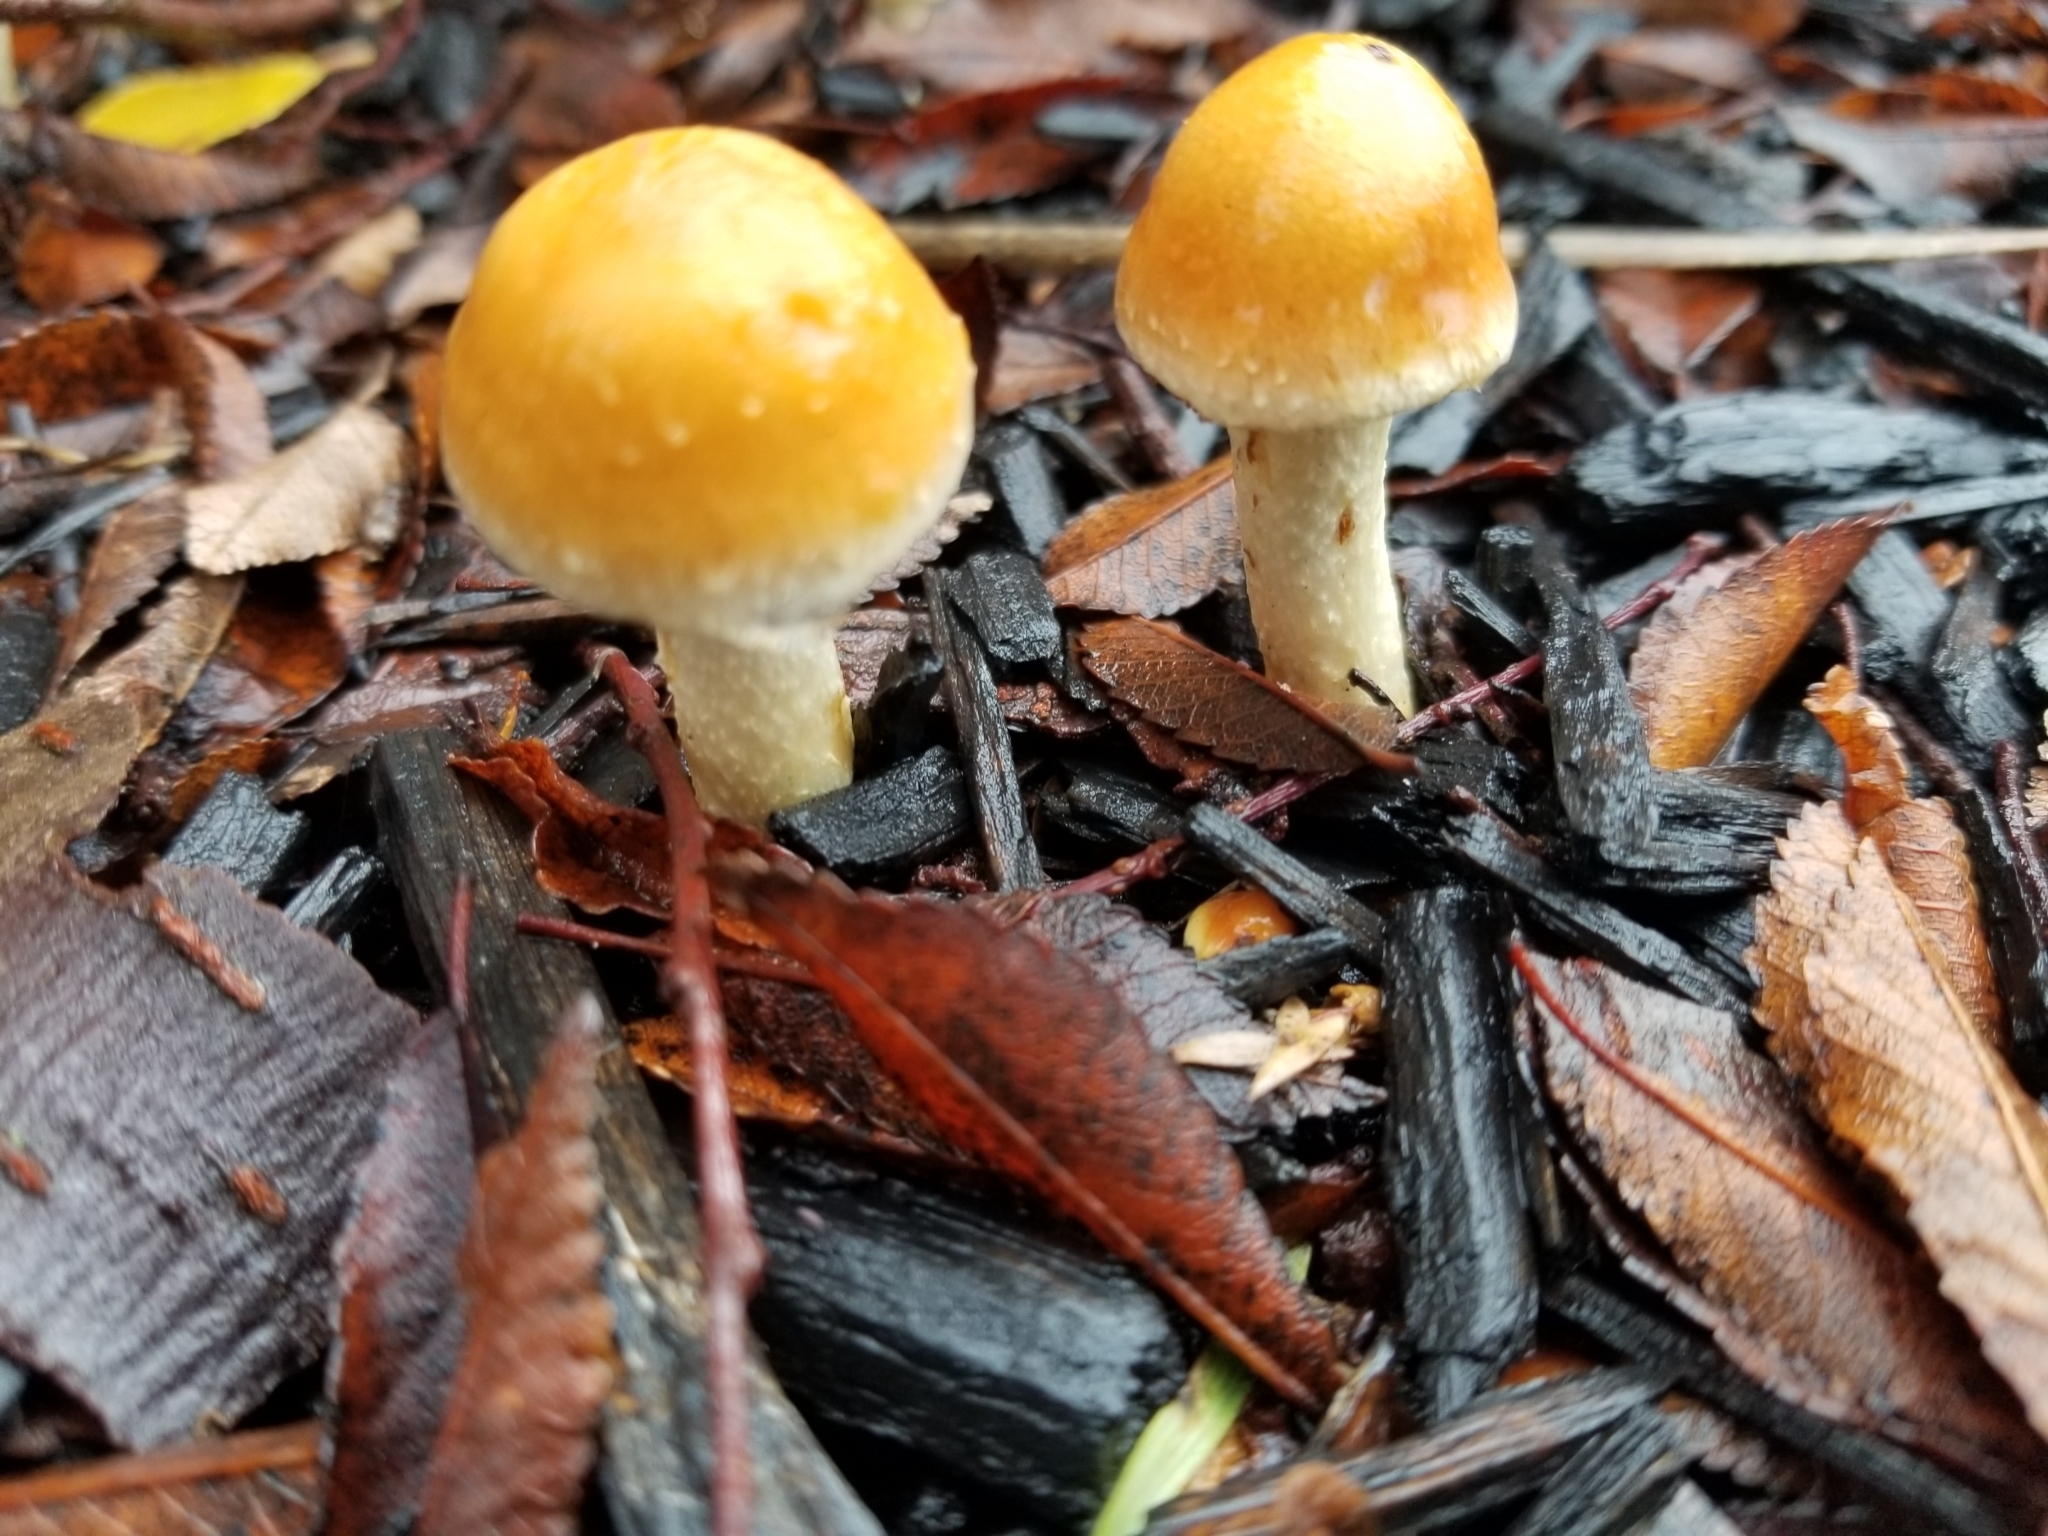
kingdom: Fungi
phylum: Basidiomycota
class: Agaricomycetes
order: Agaricales
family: Strophariaceae
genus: Leratiomyces
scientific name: Leratiomyces percevalii
